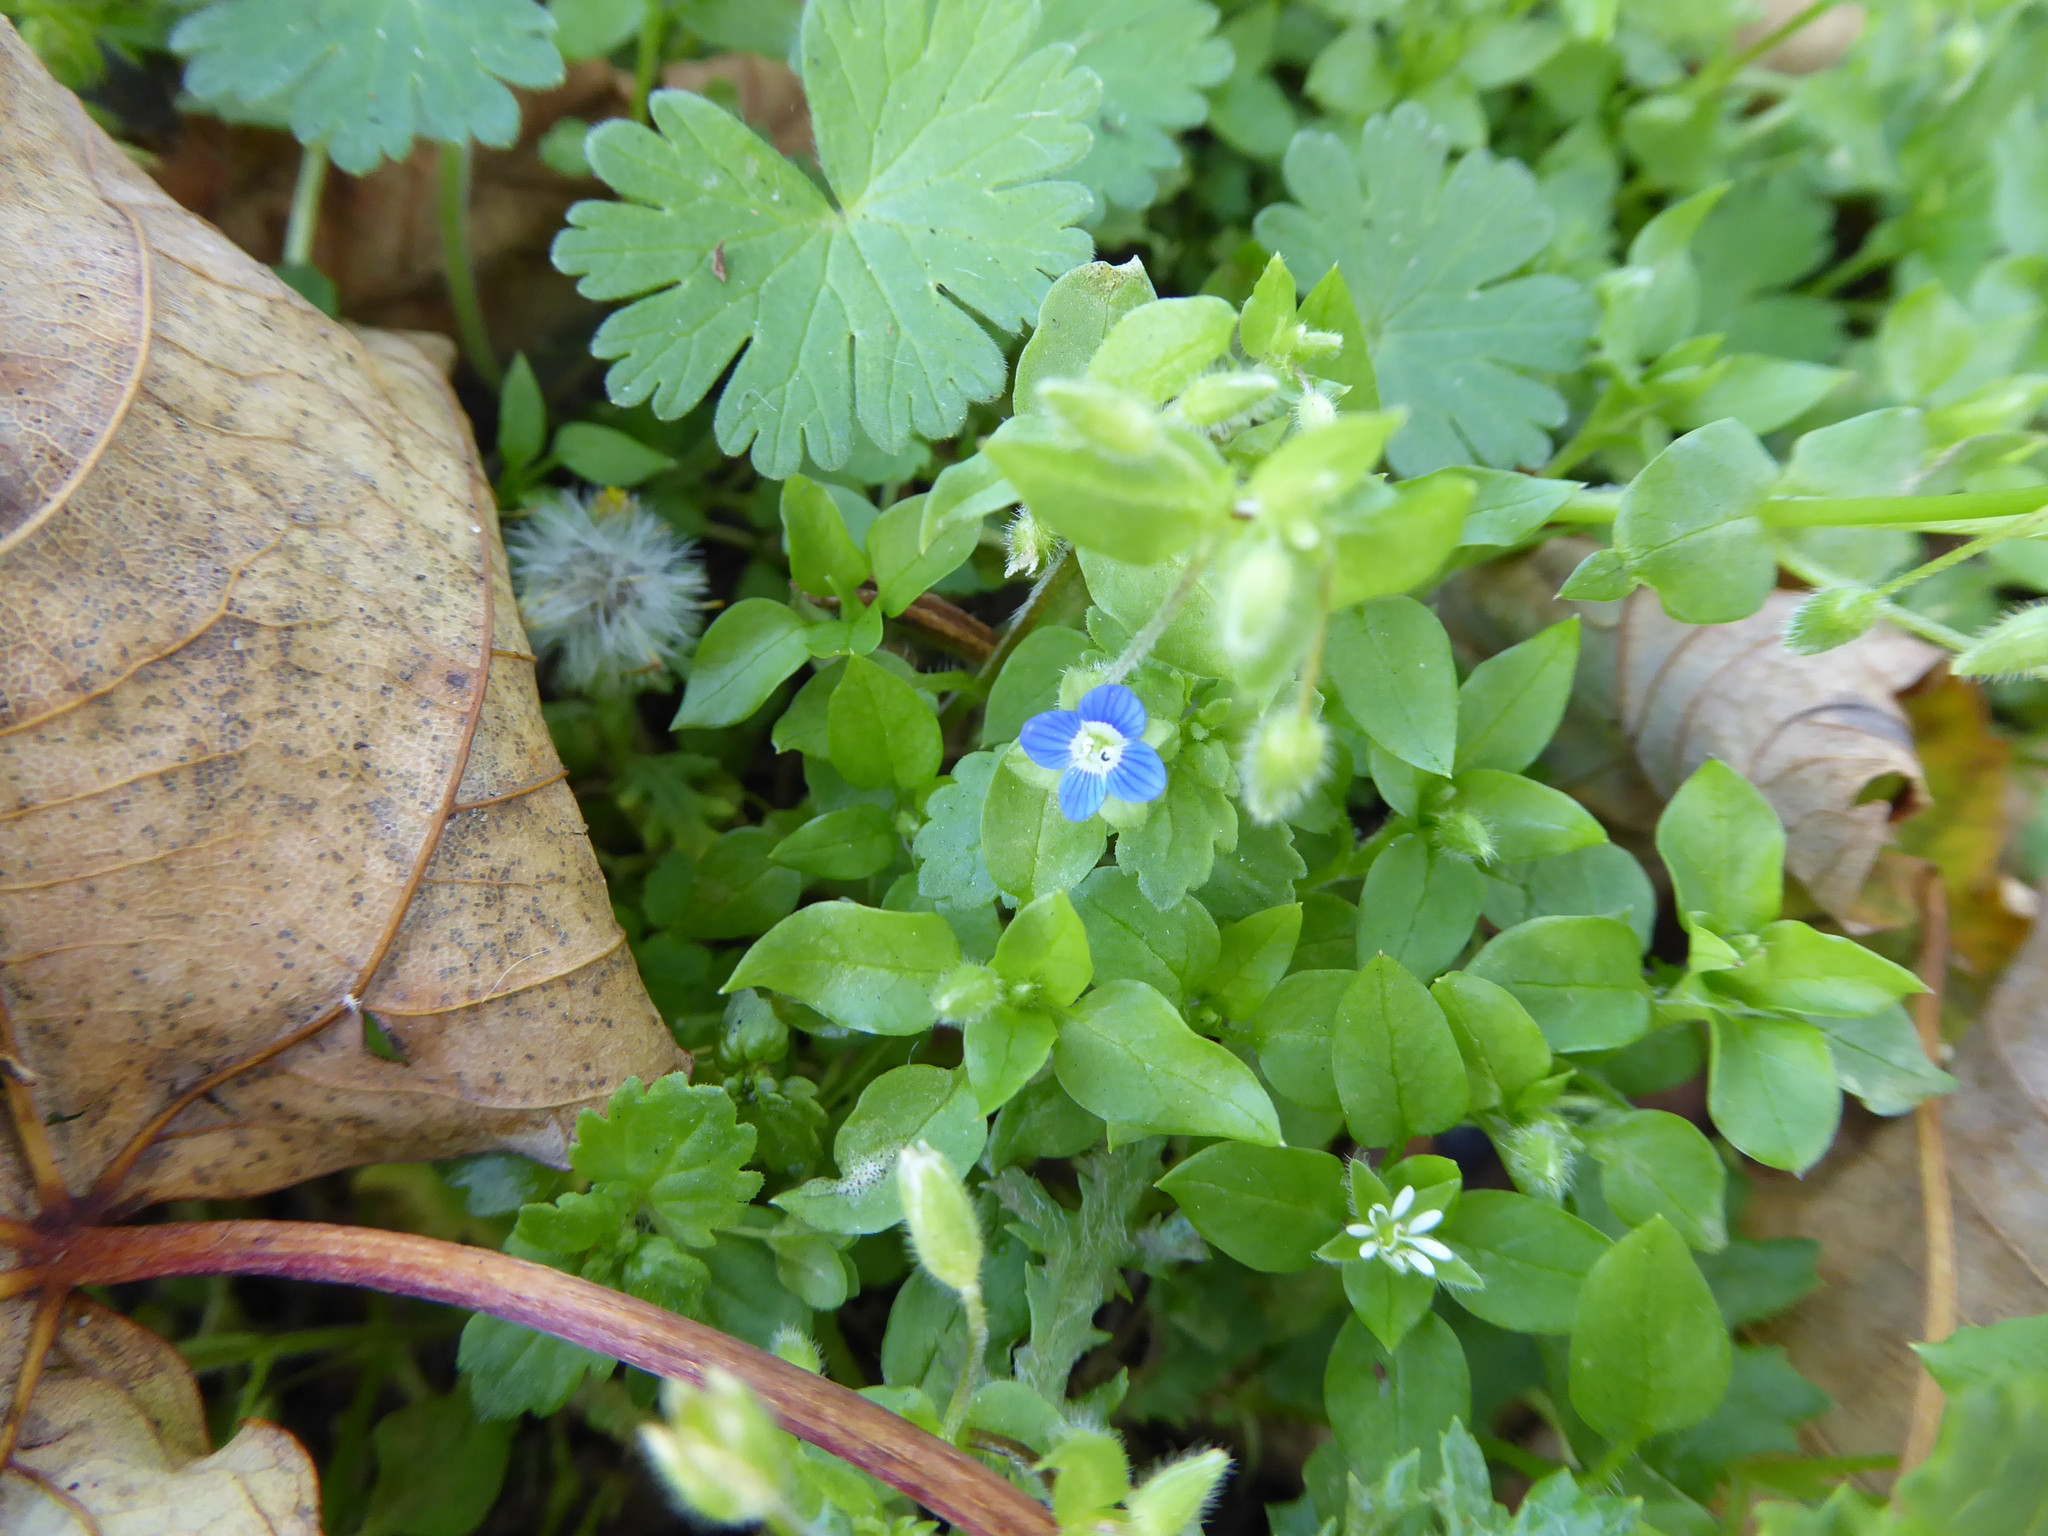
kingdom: Plantae
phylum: Tracheophyta
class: Magnoliopsida
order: Lamiales
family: Plantaginaceae
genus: Veronica
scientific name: Veronica polita
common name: Grey field-speedwell
